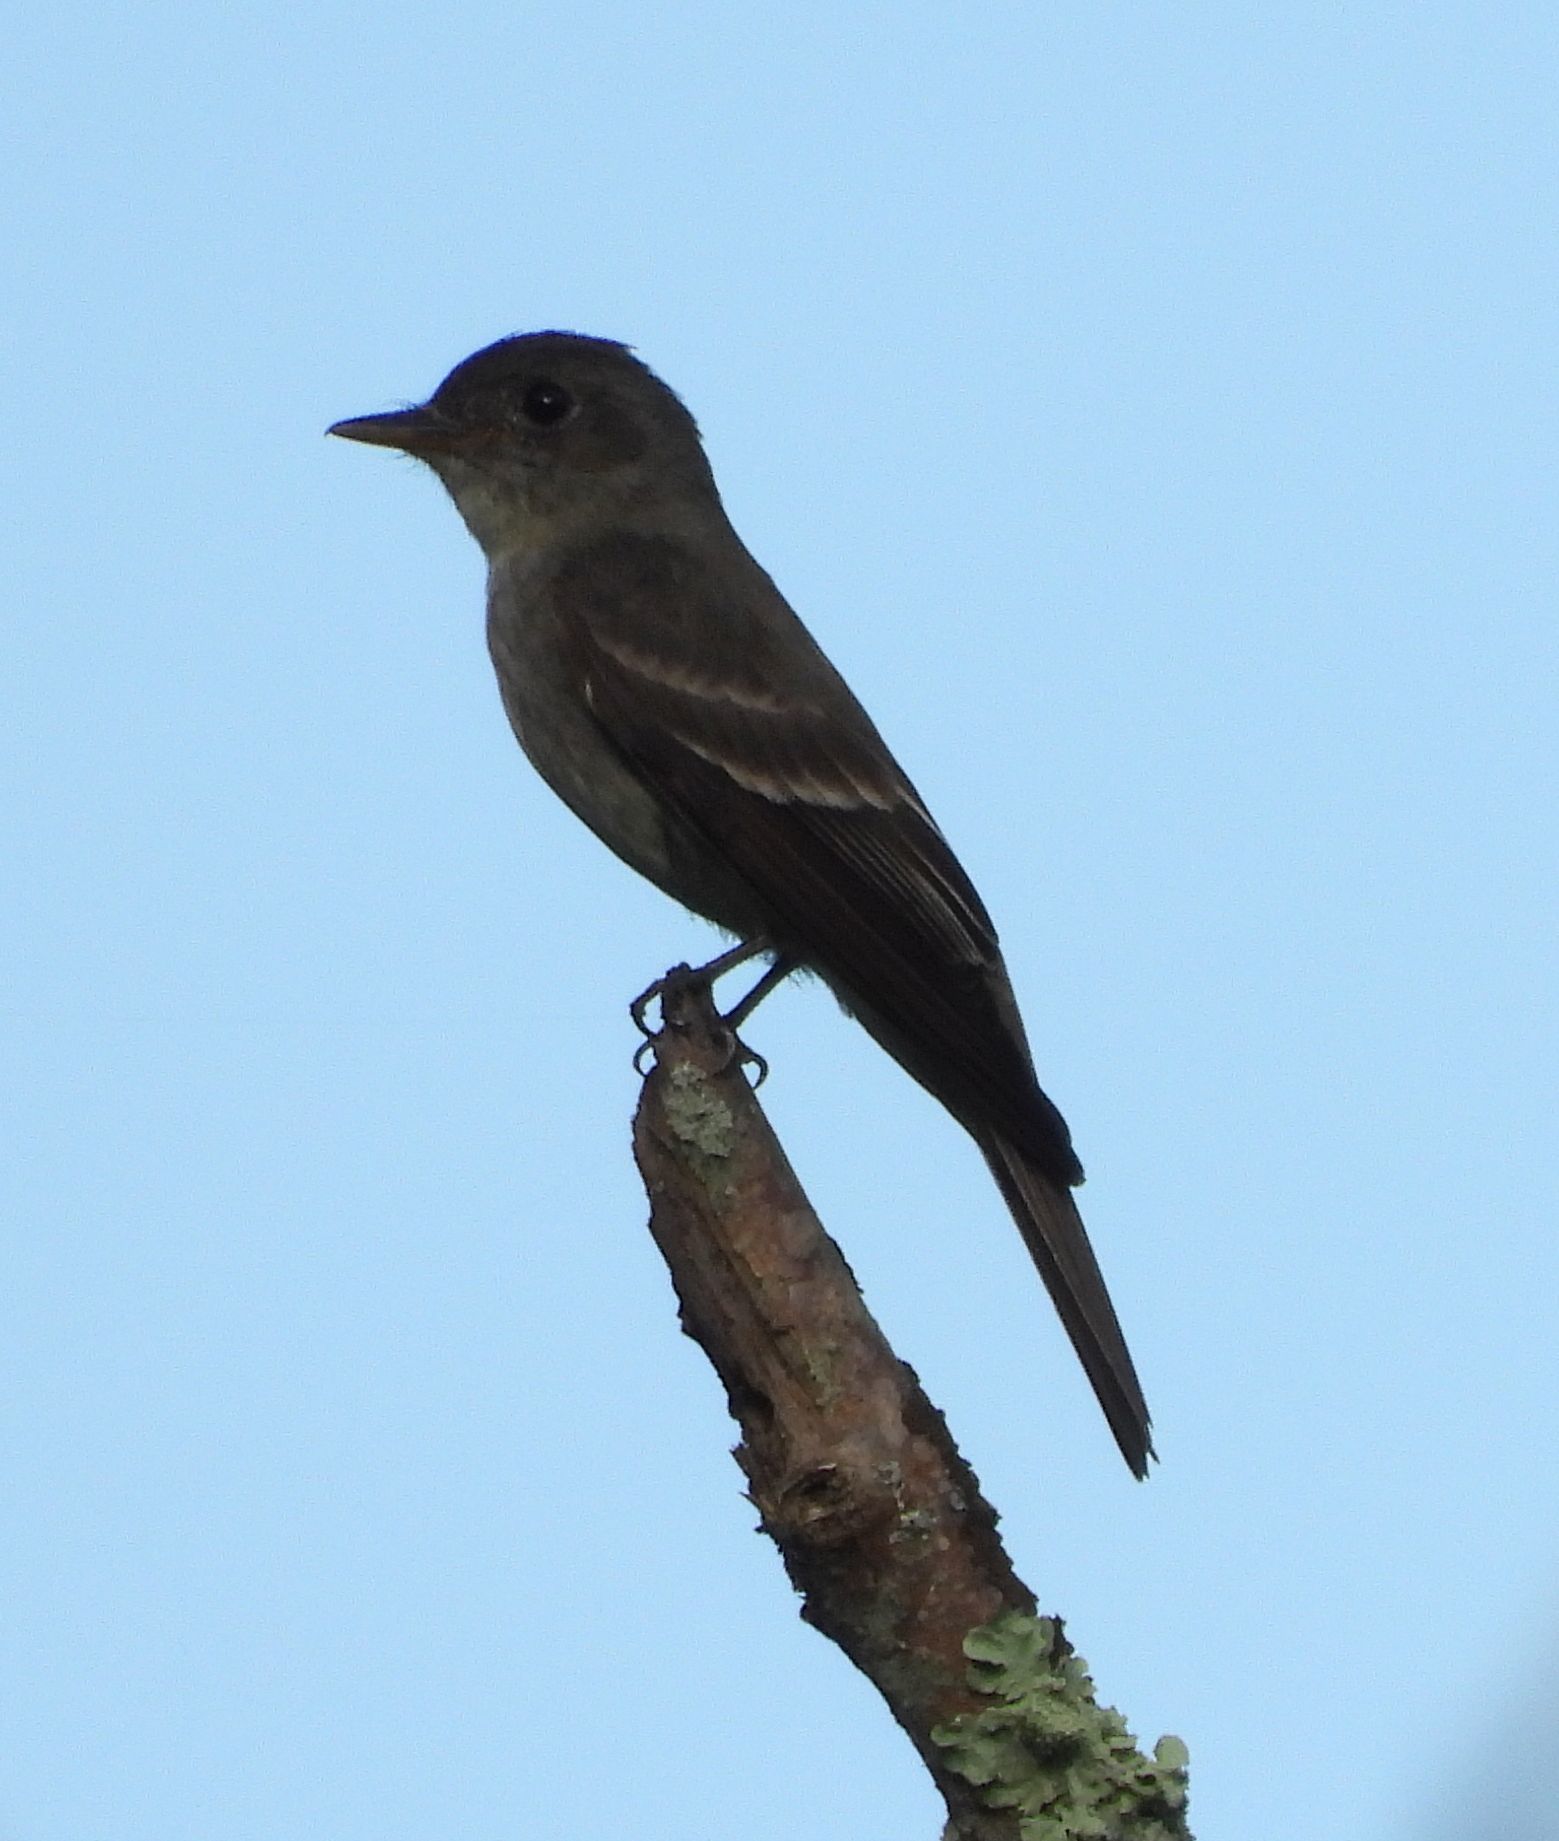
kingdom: Animalia
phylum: Chordata
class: Aves
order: Passeriformes
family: Tyrannidae
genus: Contopus
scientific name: Contopus virens
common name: Eastern wood-pewee
